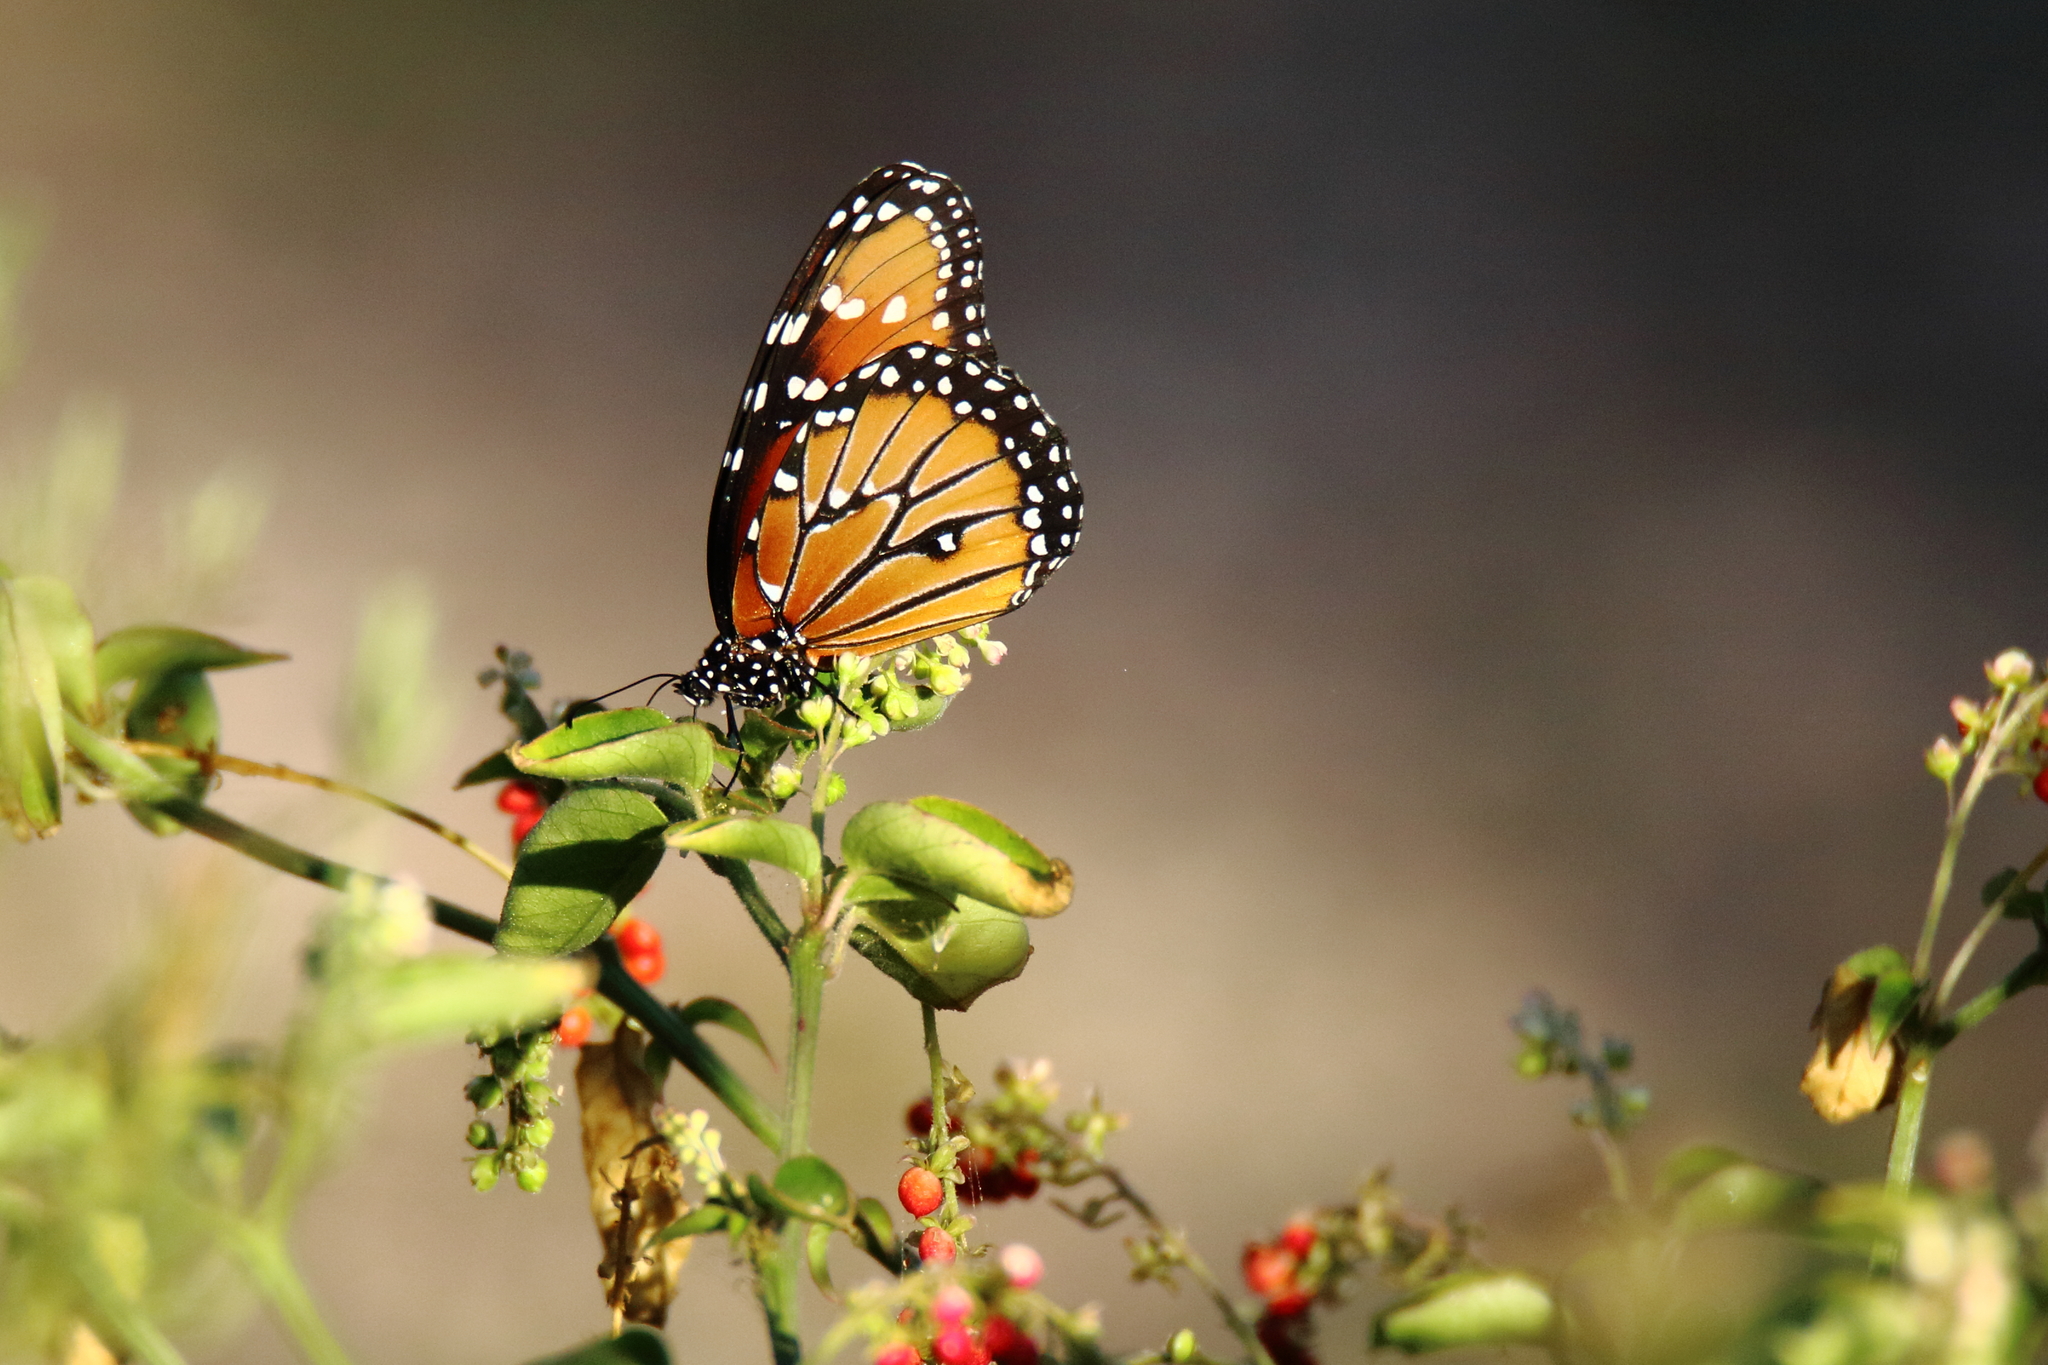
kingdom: Animalia
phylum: Arthropoda
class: Insecta
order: Lepidoptera
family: Nymphalidae
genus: Danaus
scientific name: Danaus gilippus
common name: Queen
